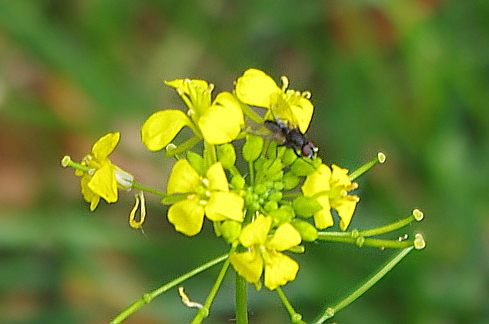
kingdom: Plantae
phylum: Tracheophyta
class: Magnoliopsida
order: Brassicales
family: Brassicaceae
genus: Sisymbrium
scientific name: Sisymbrium loeselii
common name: False london-rocket
